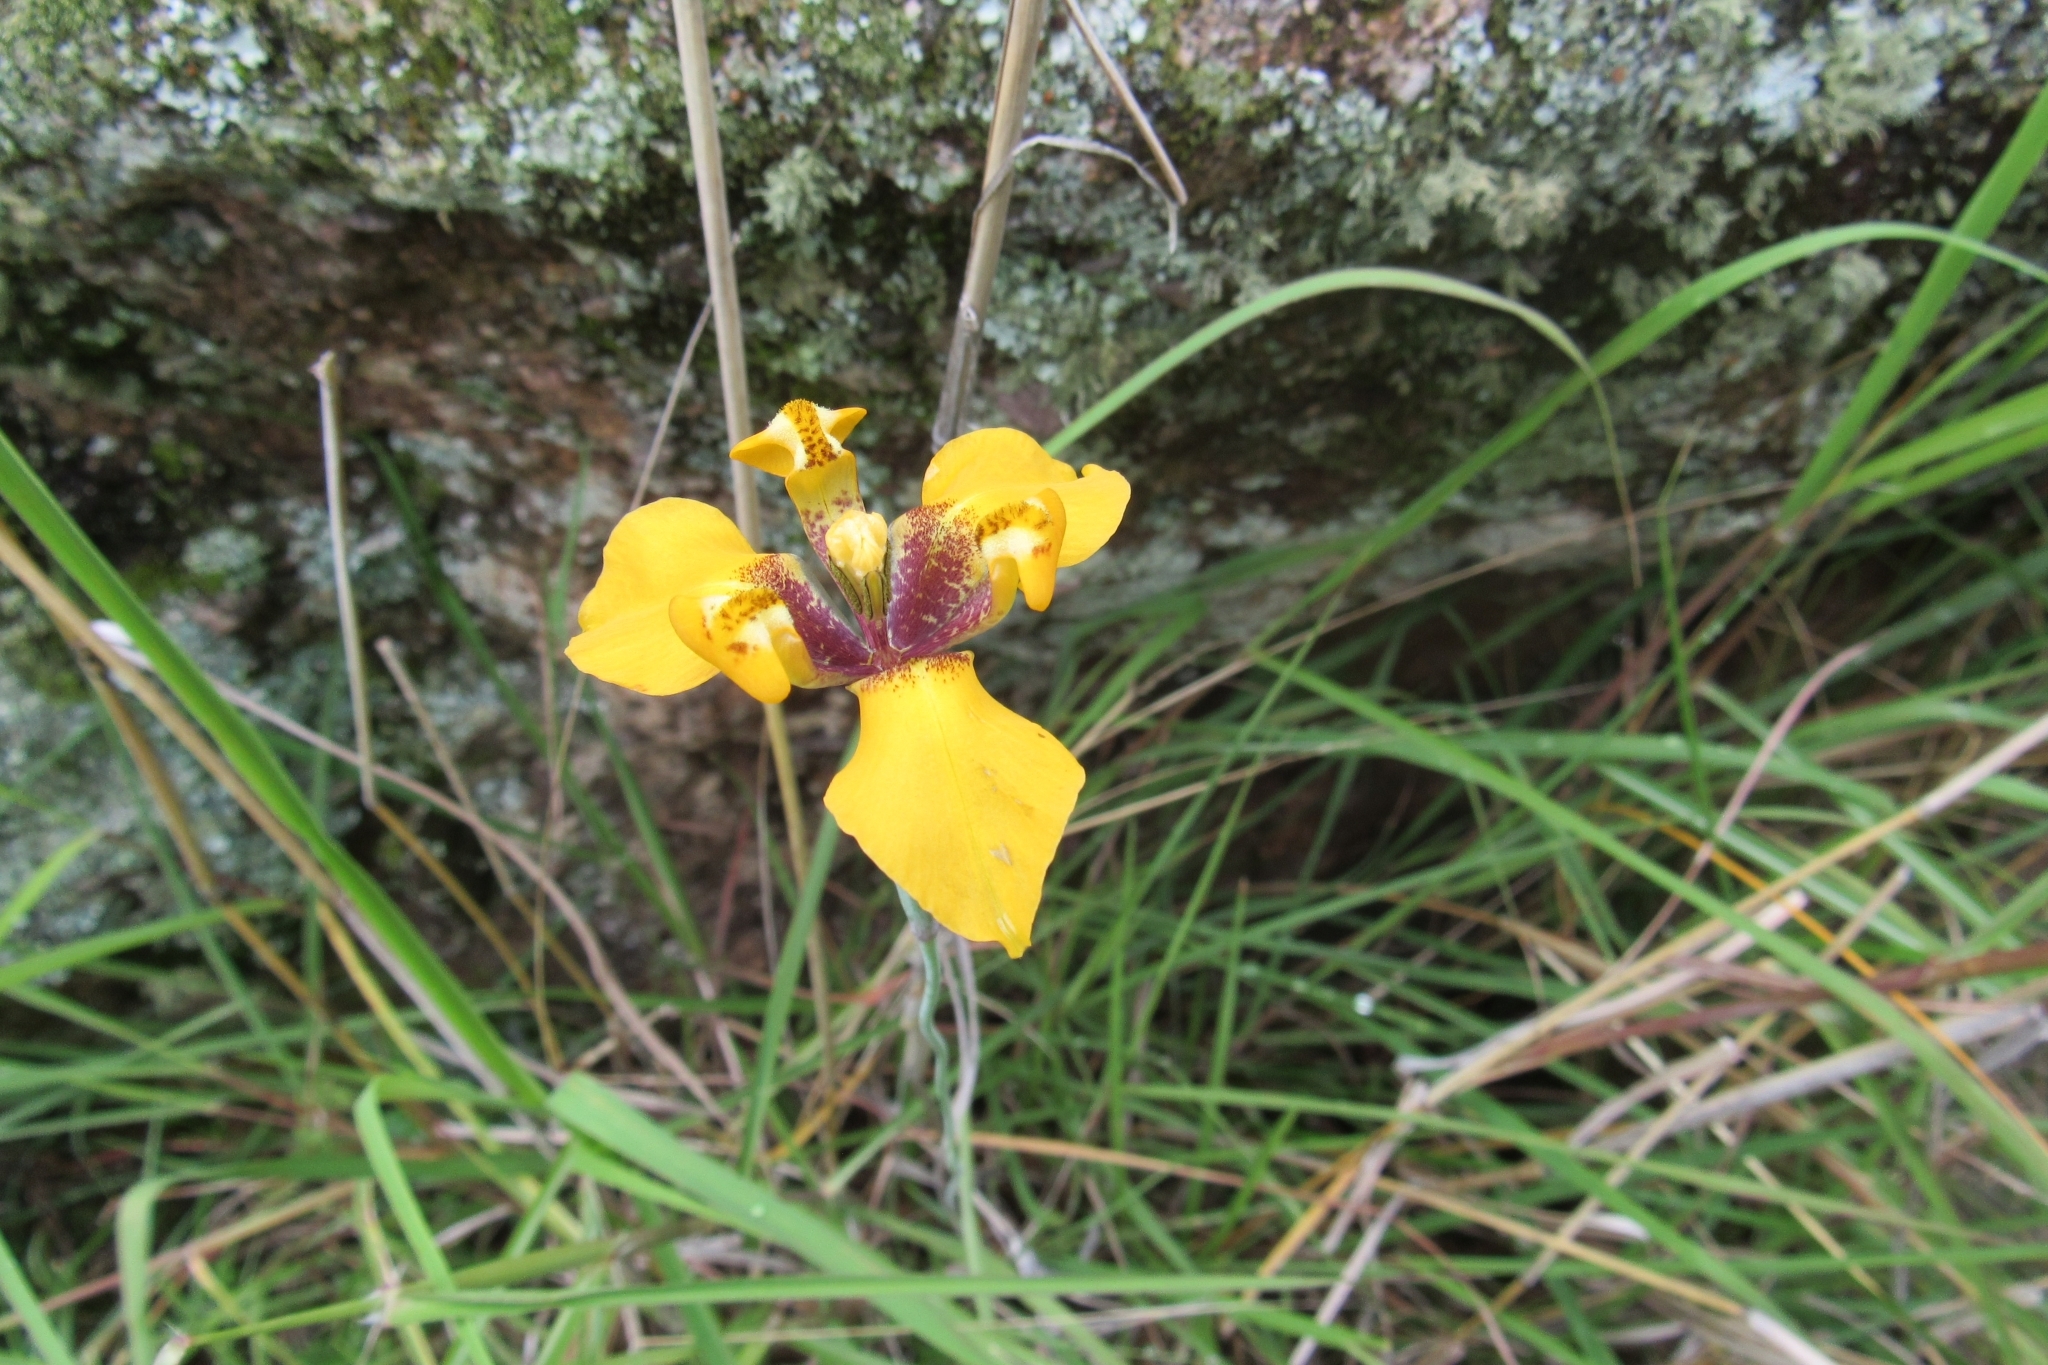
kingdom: Plantae
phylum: Tracheophyta
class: Liliopsida
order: Asparagales
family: Iridaceae
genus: Hesperoxiphion
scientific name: Hesperoxiphion peruvianum
